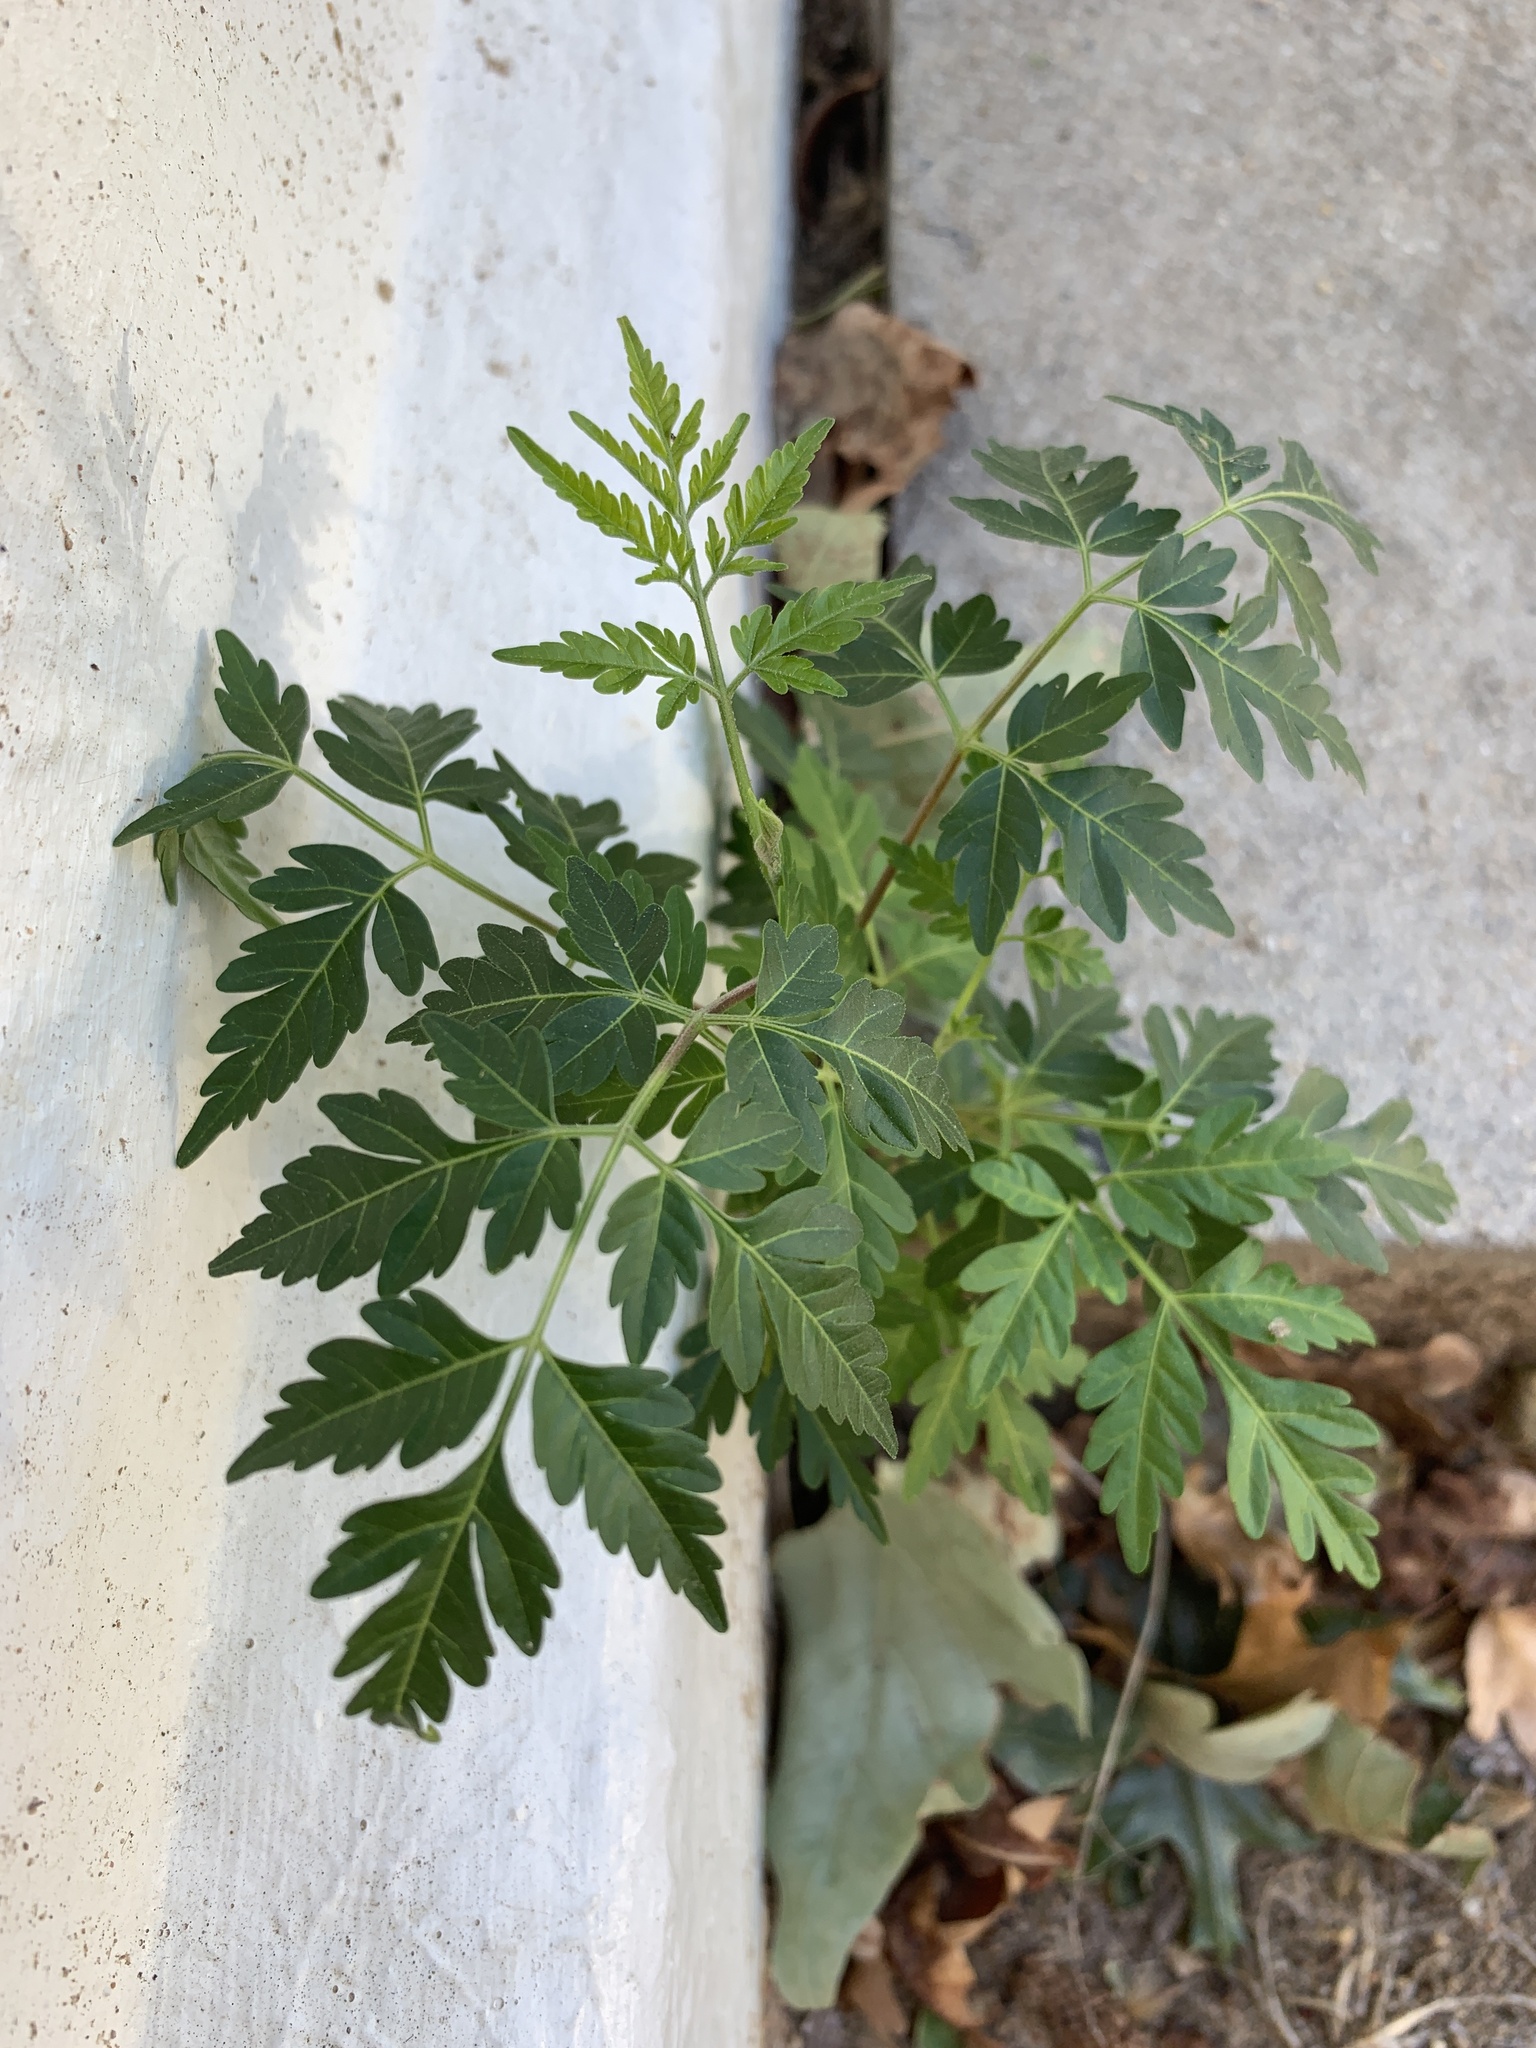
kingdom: Plantae
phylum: Tracheophyta
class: Magnoliopsida
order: Sapindales
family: Meliaceae
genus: Melia
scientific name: Melia azedarach
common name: Chinaberrytree
